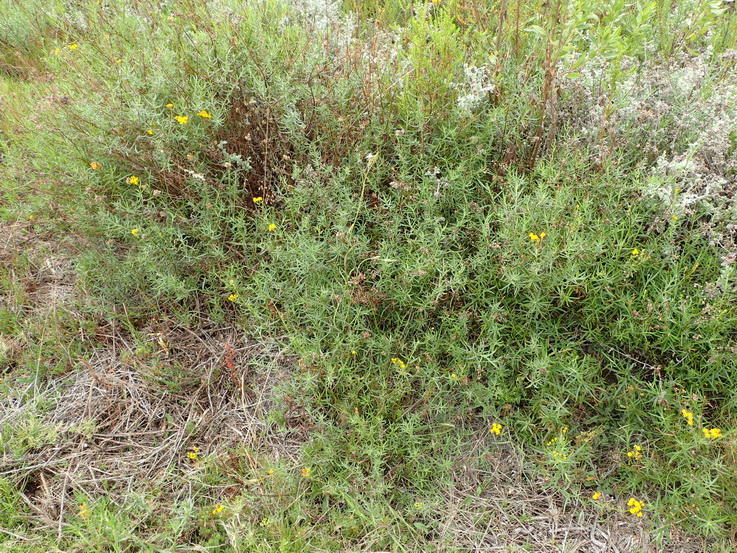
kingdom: Plantae
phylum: Tracheophyta
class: Magnoliopsida
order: Asterales
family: Asteraceae
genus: Senecio
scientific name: Senecio rosmarinifolius
